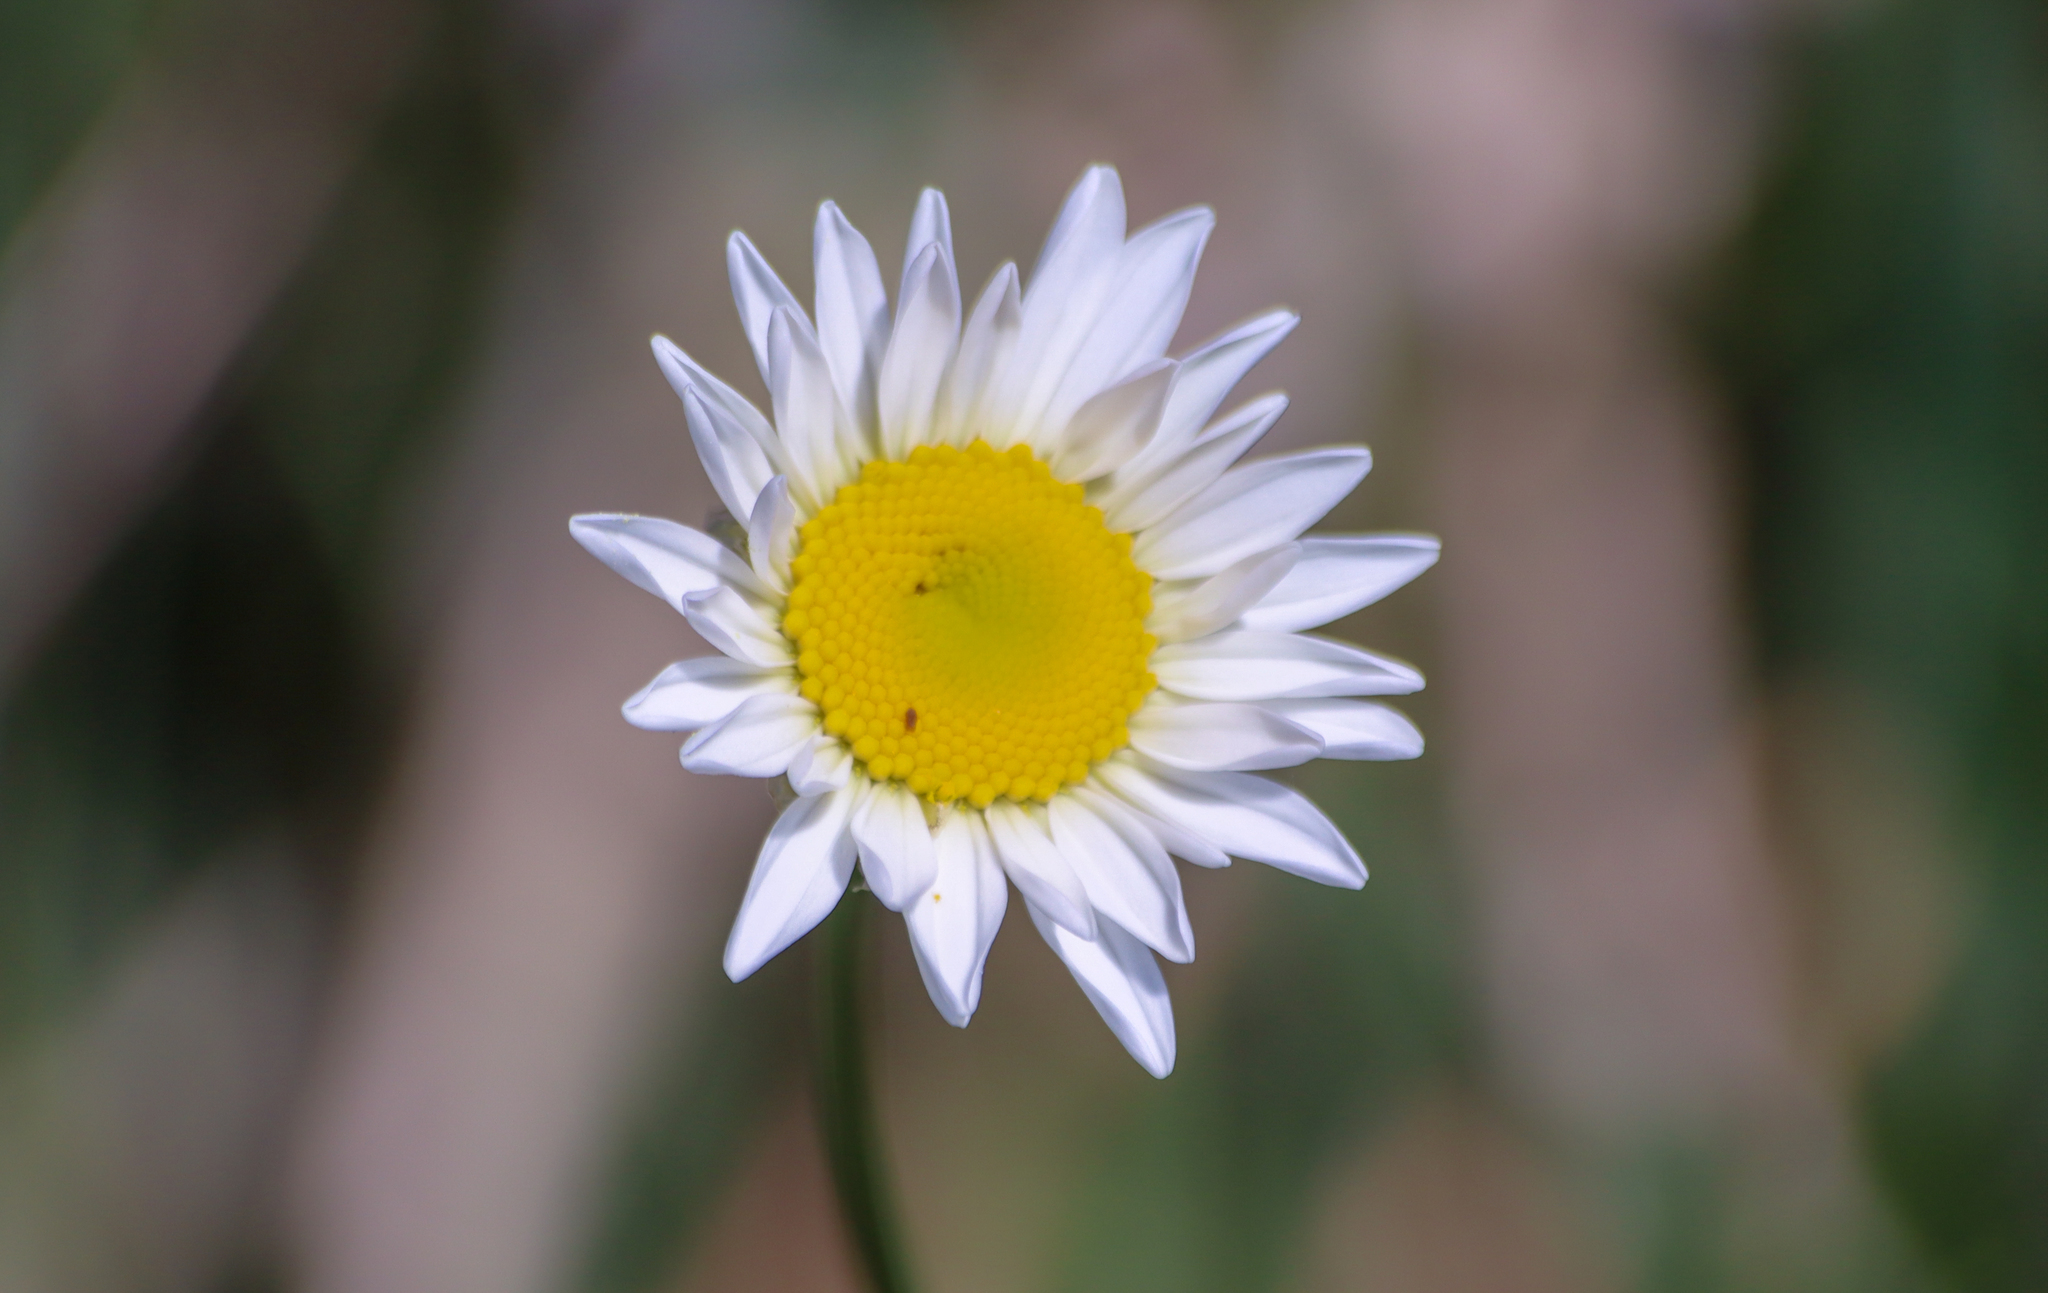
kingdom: Plantae
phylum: Tracheophyta
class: Magnoliopsida
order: Asterales
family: Asteraceae
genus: Leucanthemum
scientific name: Leucanthemum vulgare
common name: Oxeye daisy
